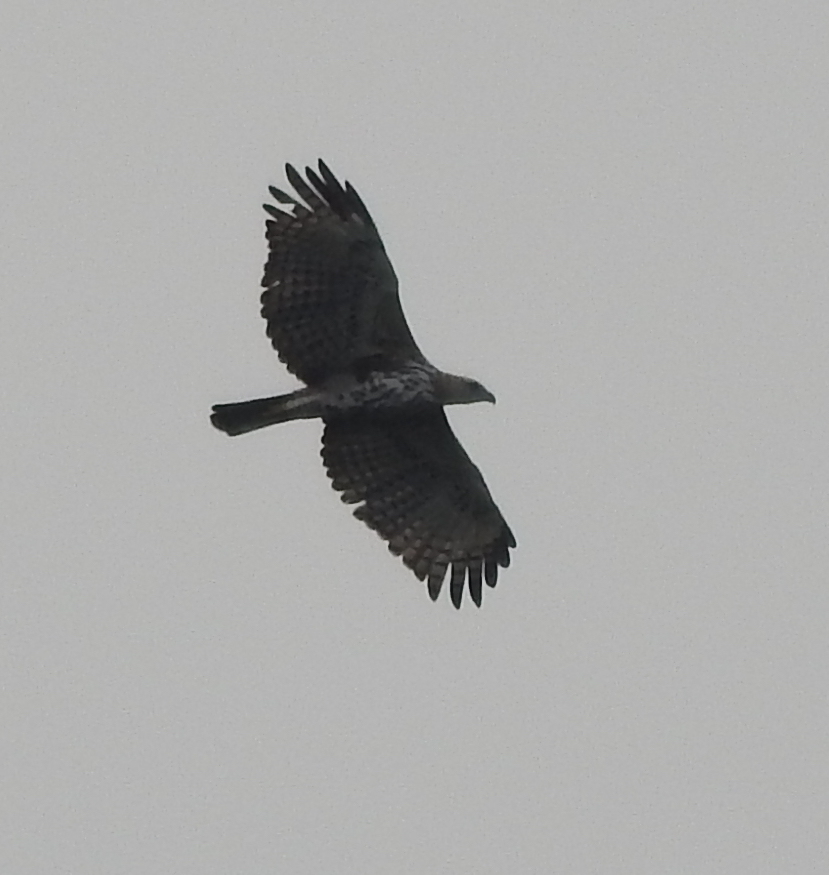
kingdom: Animalia
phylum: Chordata
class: Aves
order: Accipitriformes
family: Accipitridae
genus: Nisaetus
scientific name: Nisaetus cirrhatus
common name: Changeable hawk-eagle
